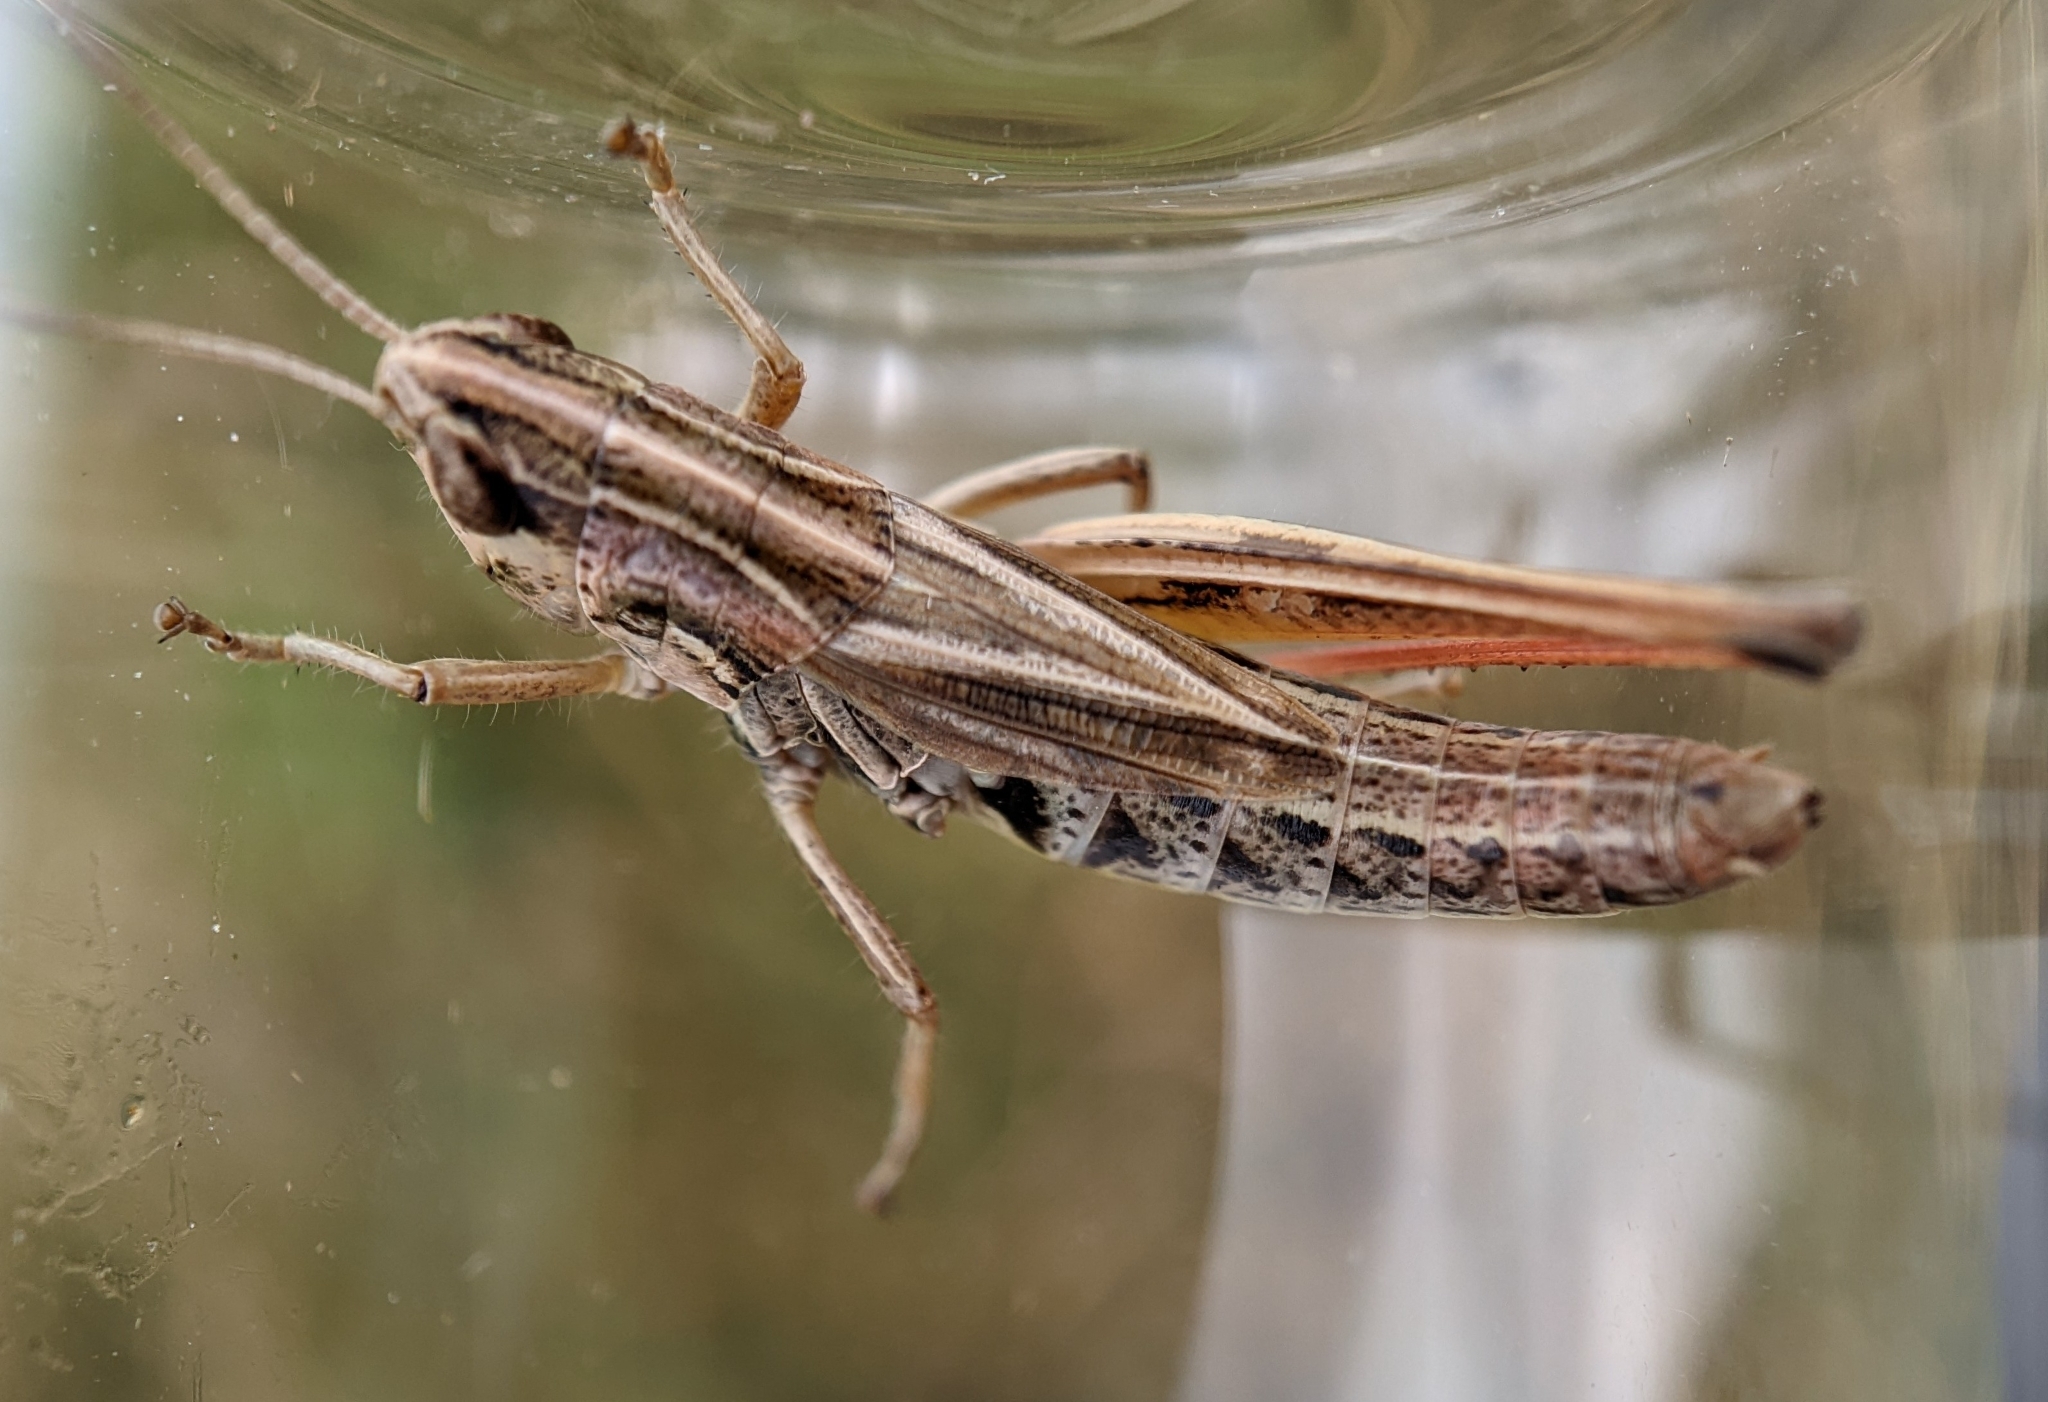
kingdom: Animalia
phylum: Arthropoda
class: Insecta
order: Orthoptera
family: Acrididae
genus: Pseudochorthippus
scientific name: Pseudochorthippus parallelus
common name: Meadow grasshopper
